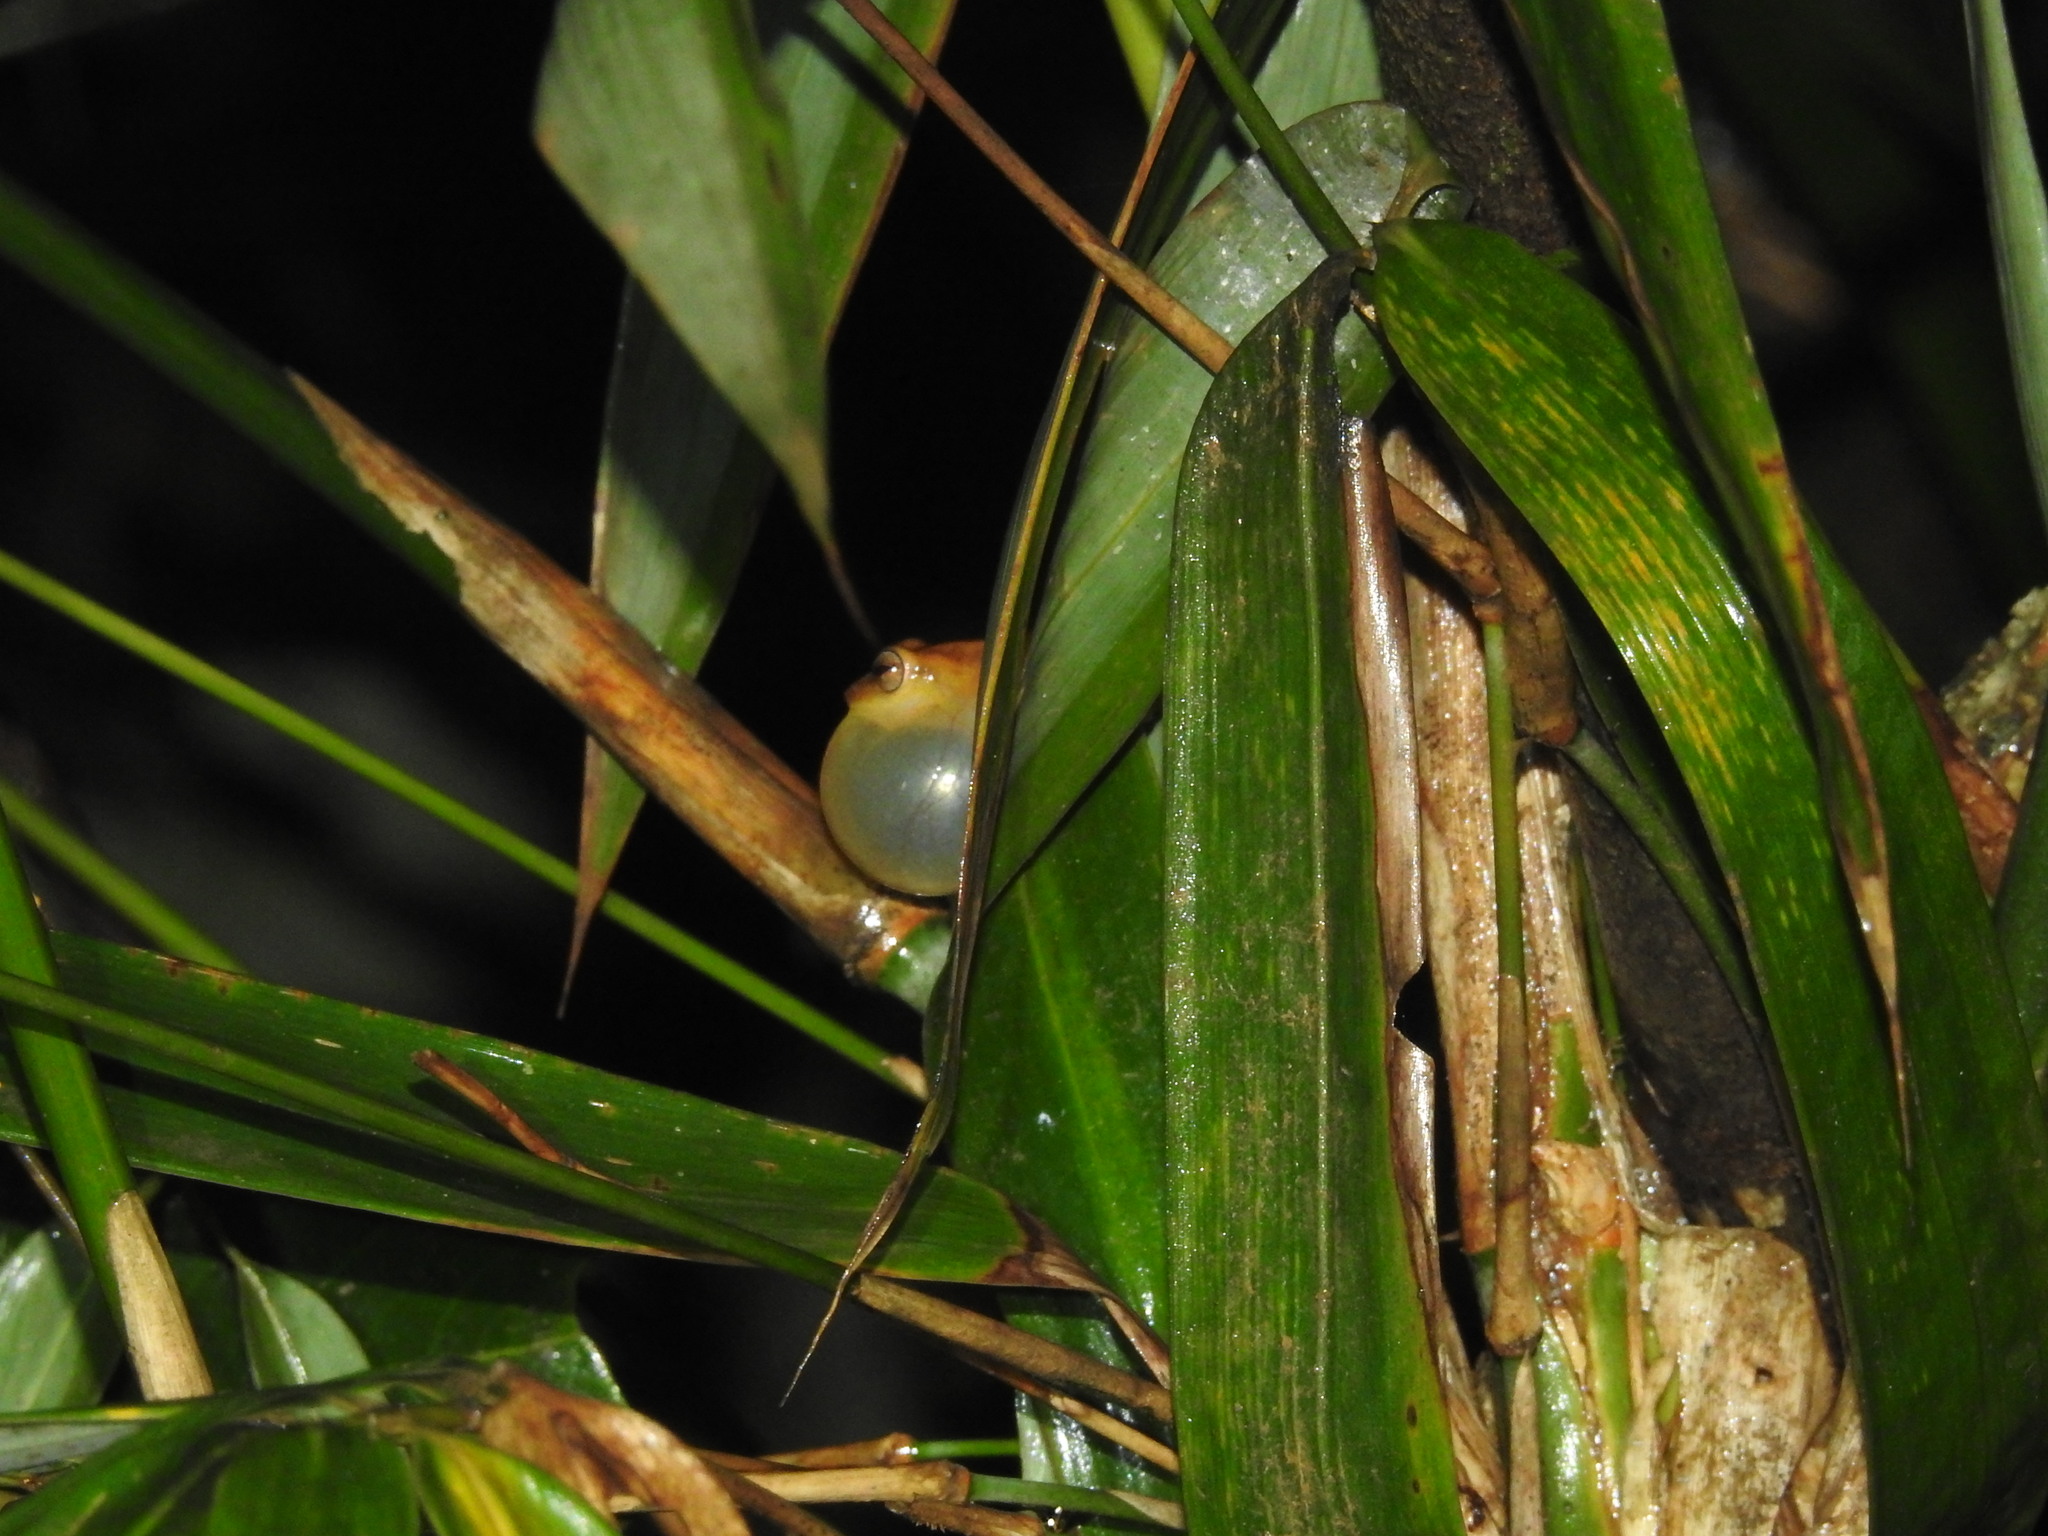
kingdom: Animalia
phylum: Chordata
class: Amphibia
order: Anura
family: Rhacophoridae
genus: Raorchestes
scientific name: Raorchestes luteolus
